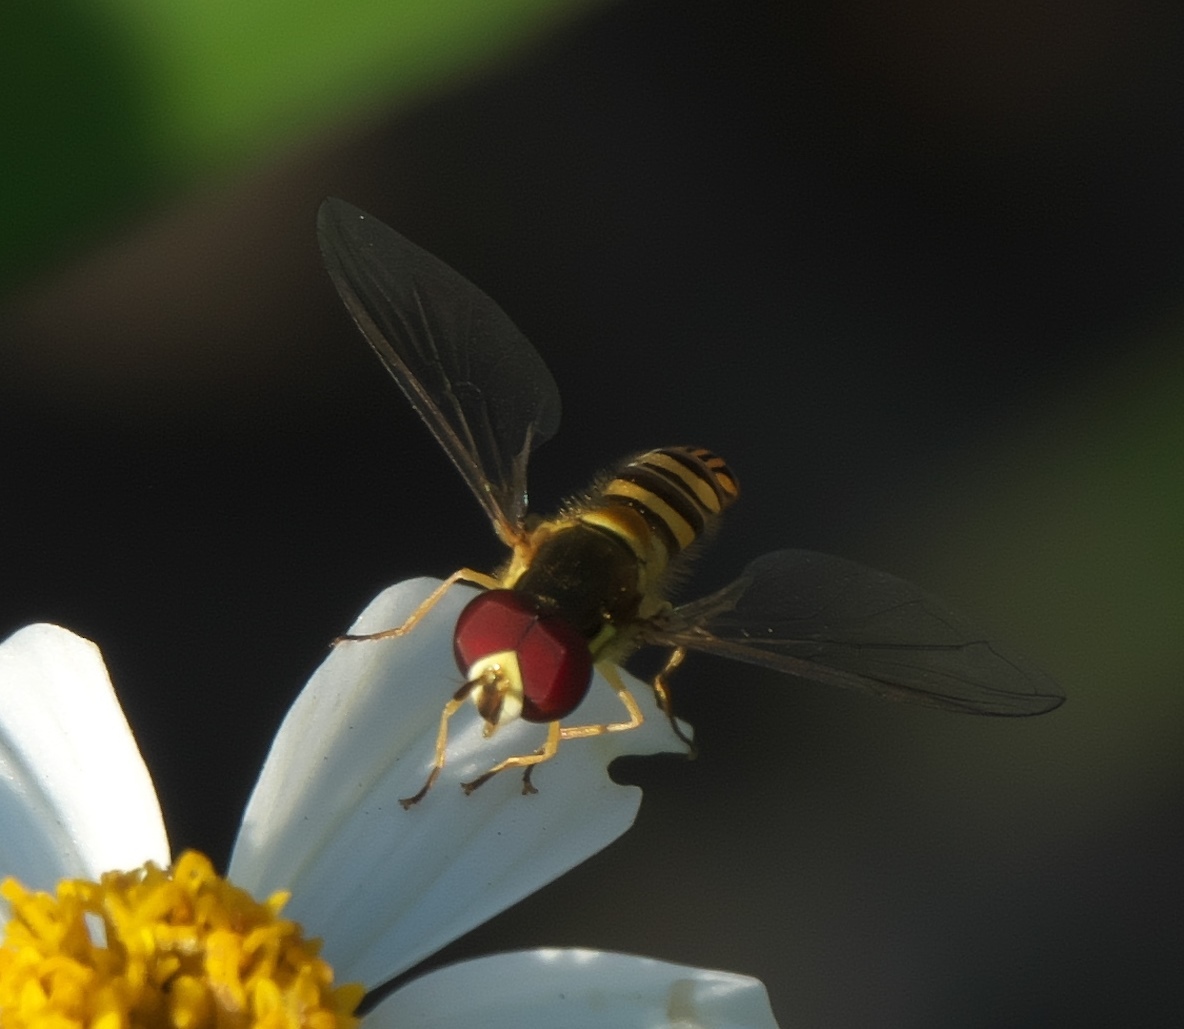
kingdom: Animalia
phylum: Arthropoda
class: Insecta
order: Diptera
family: Syrphidae
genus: Allograpta
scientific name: Allograpta obliqua
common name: Common oblique syrphid
